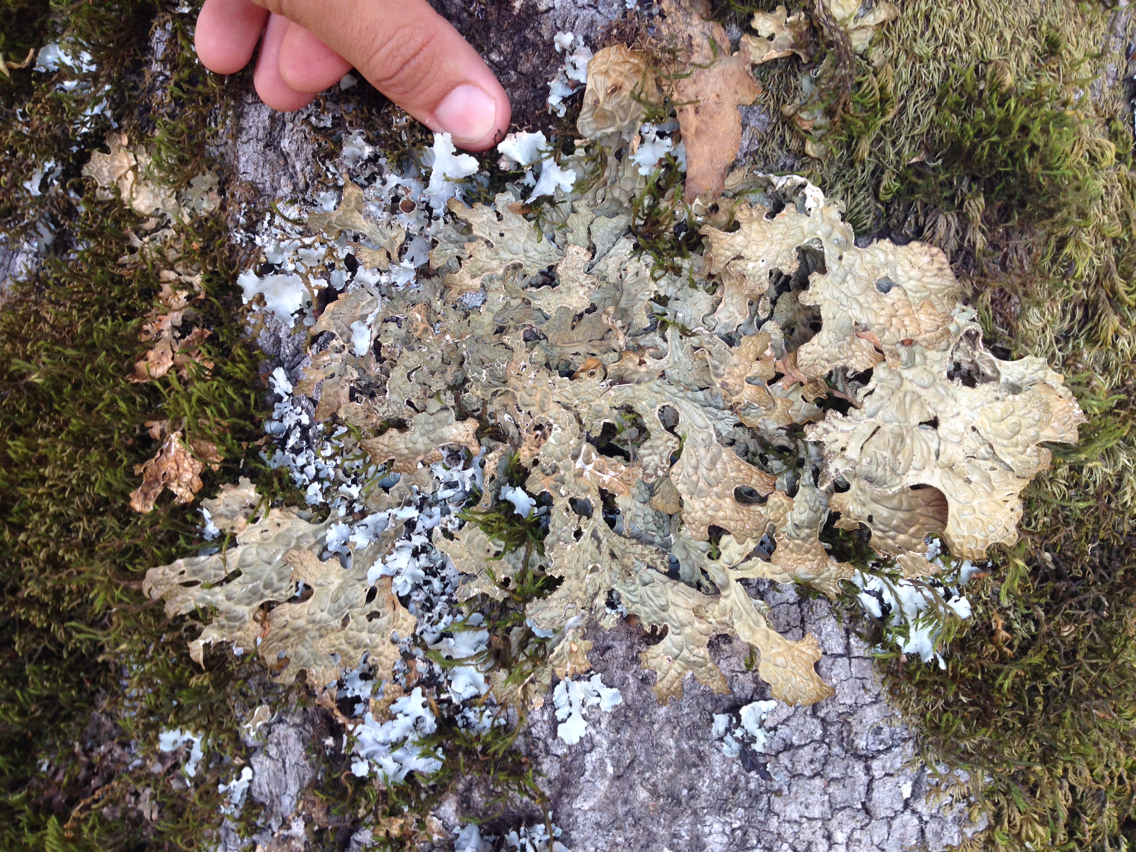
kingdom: Fungi
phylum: Ascomycota
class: Lecanoromycetes
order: Peltigerales
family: Lobariaceae
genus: Lobaria
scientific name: Lobaria pulmonaria
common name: Lungwort
